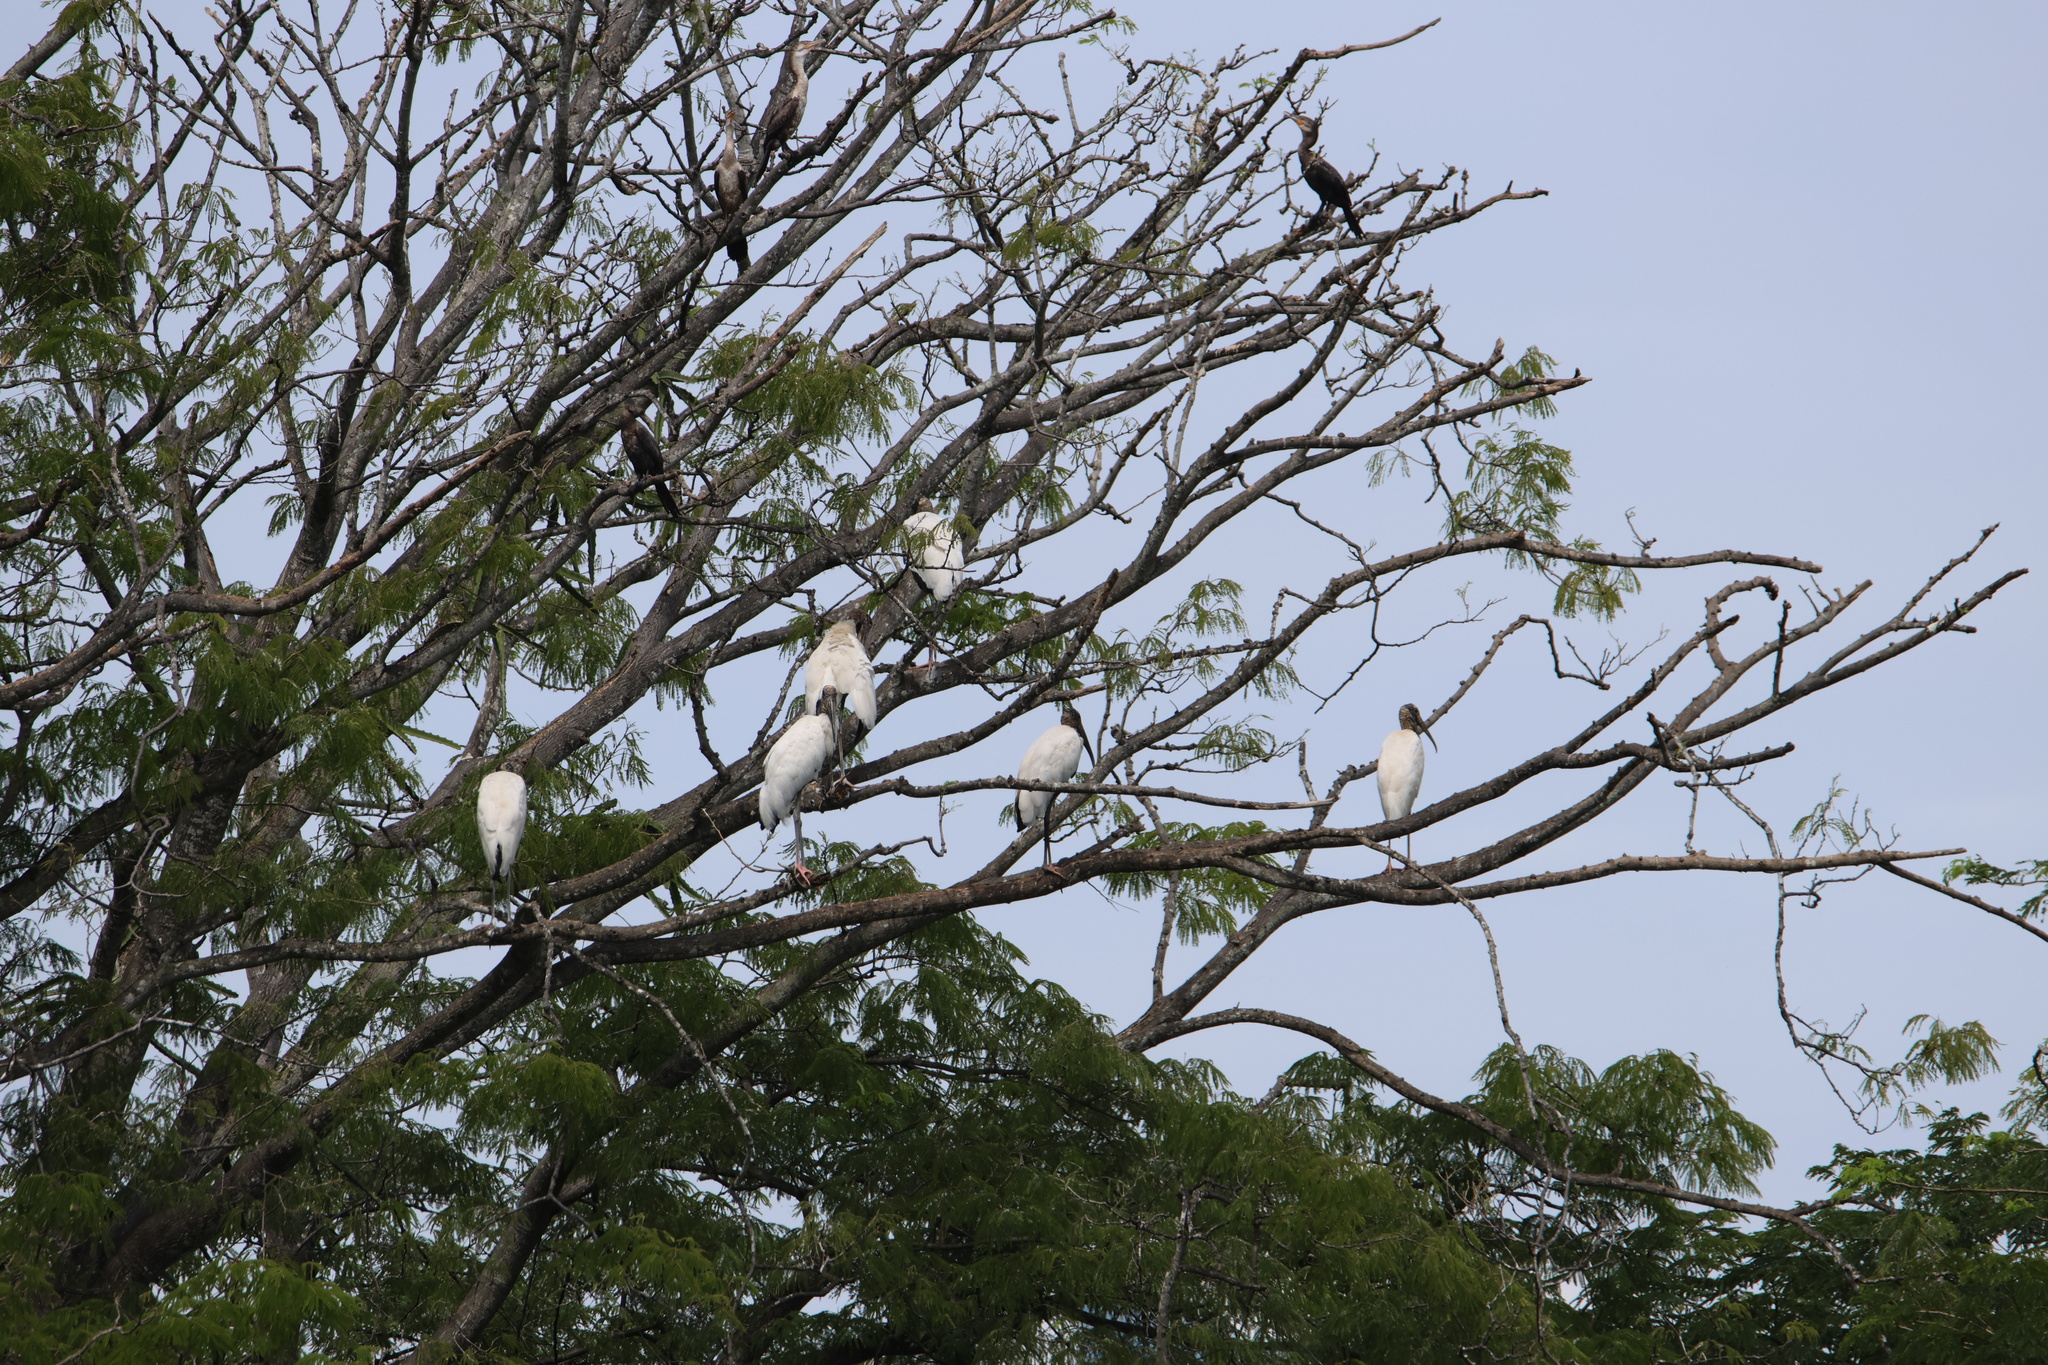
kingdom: Animalia
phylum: Chordata
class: Aves
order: Ciconiiformes
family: Ciconiidae
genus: Mycteria
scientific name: Mycteria americana
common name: Wood stork
